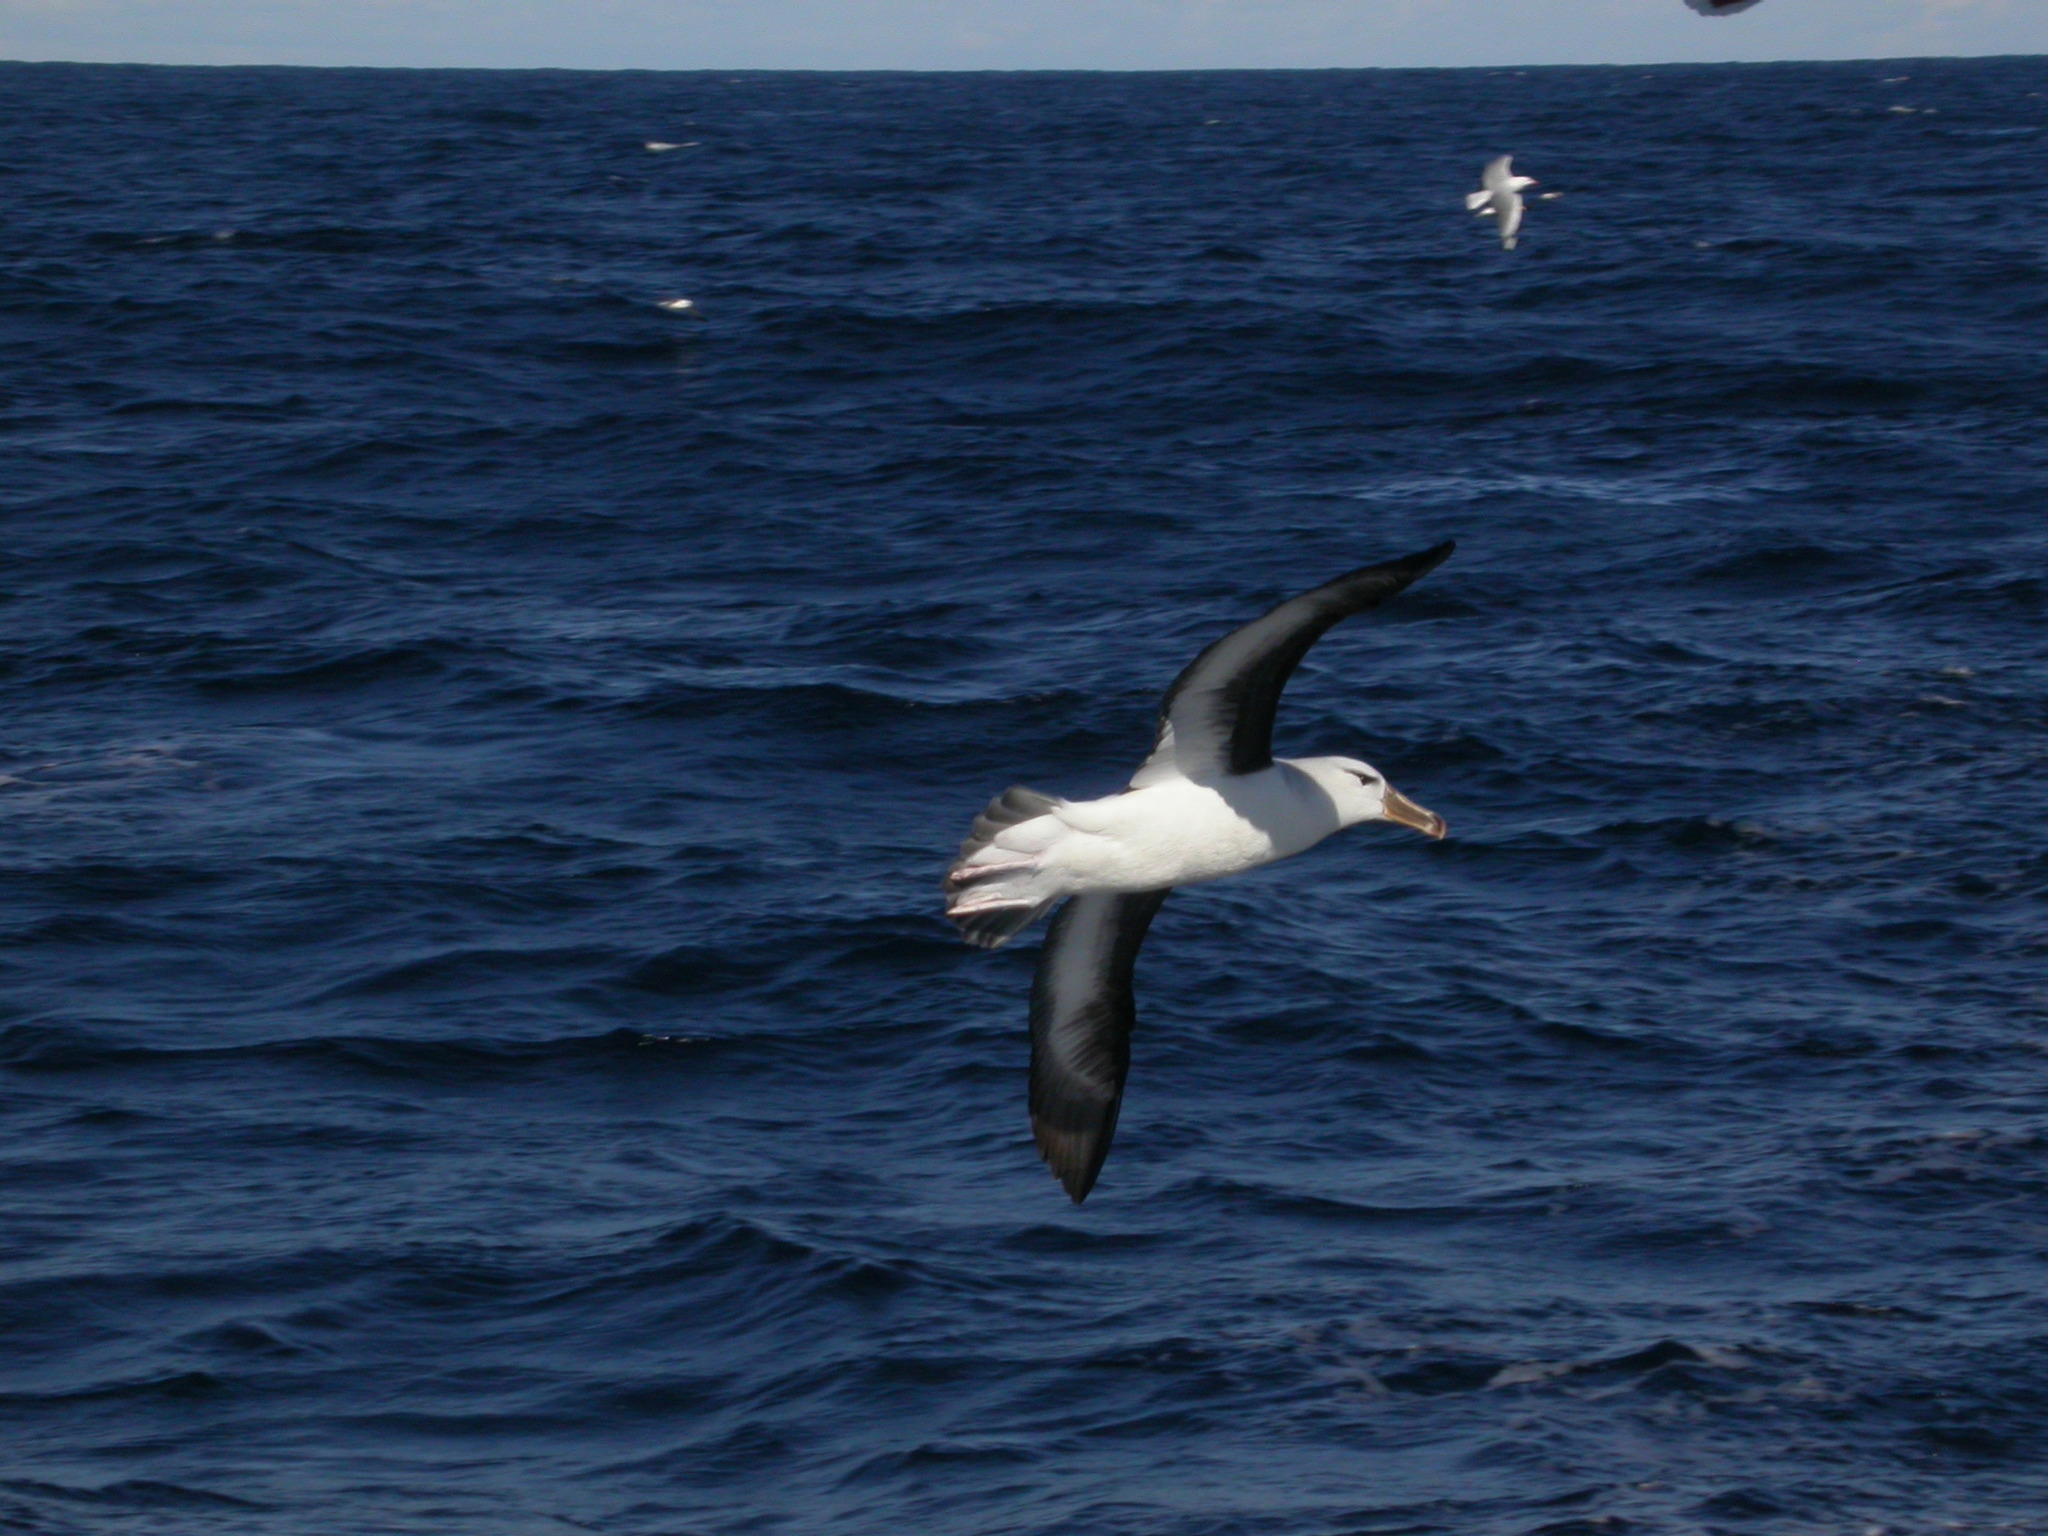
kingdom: Animalia
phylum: Chordata
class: Aves
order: Procellariiformes
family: Diomedeidae
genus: Thalassarche
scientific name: Thalassarche melanophris
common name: Black-browed albatross
